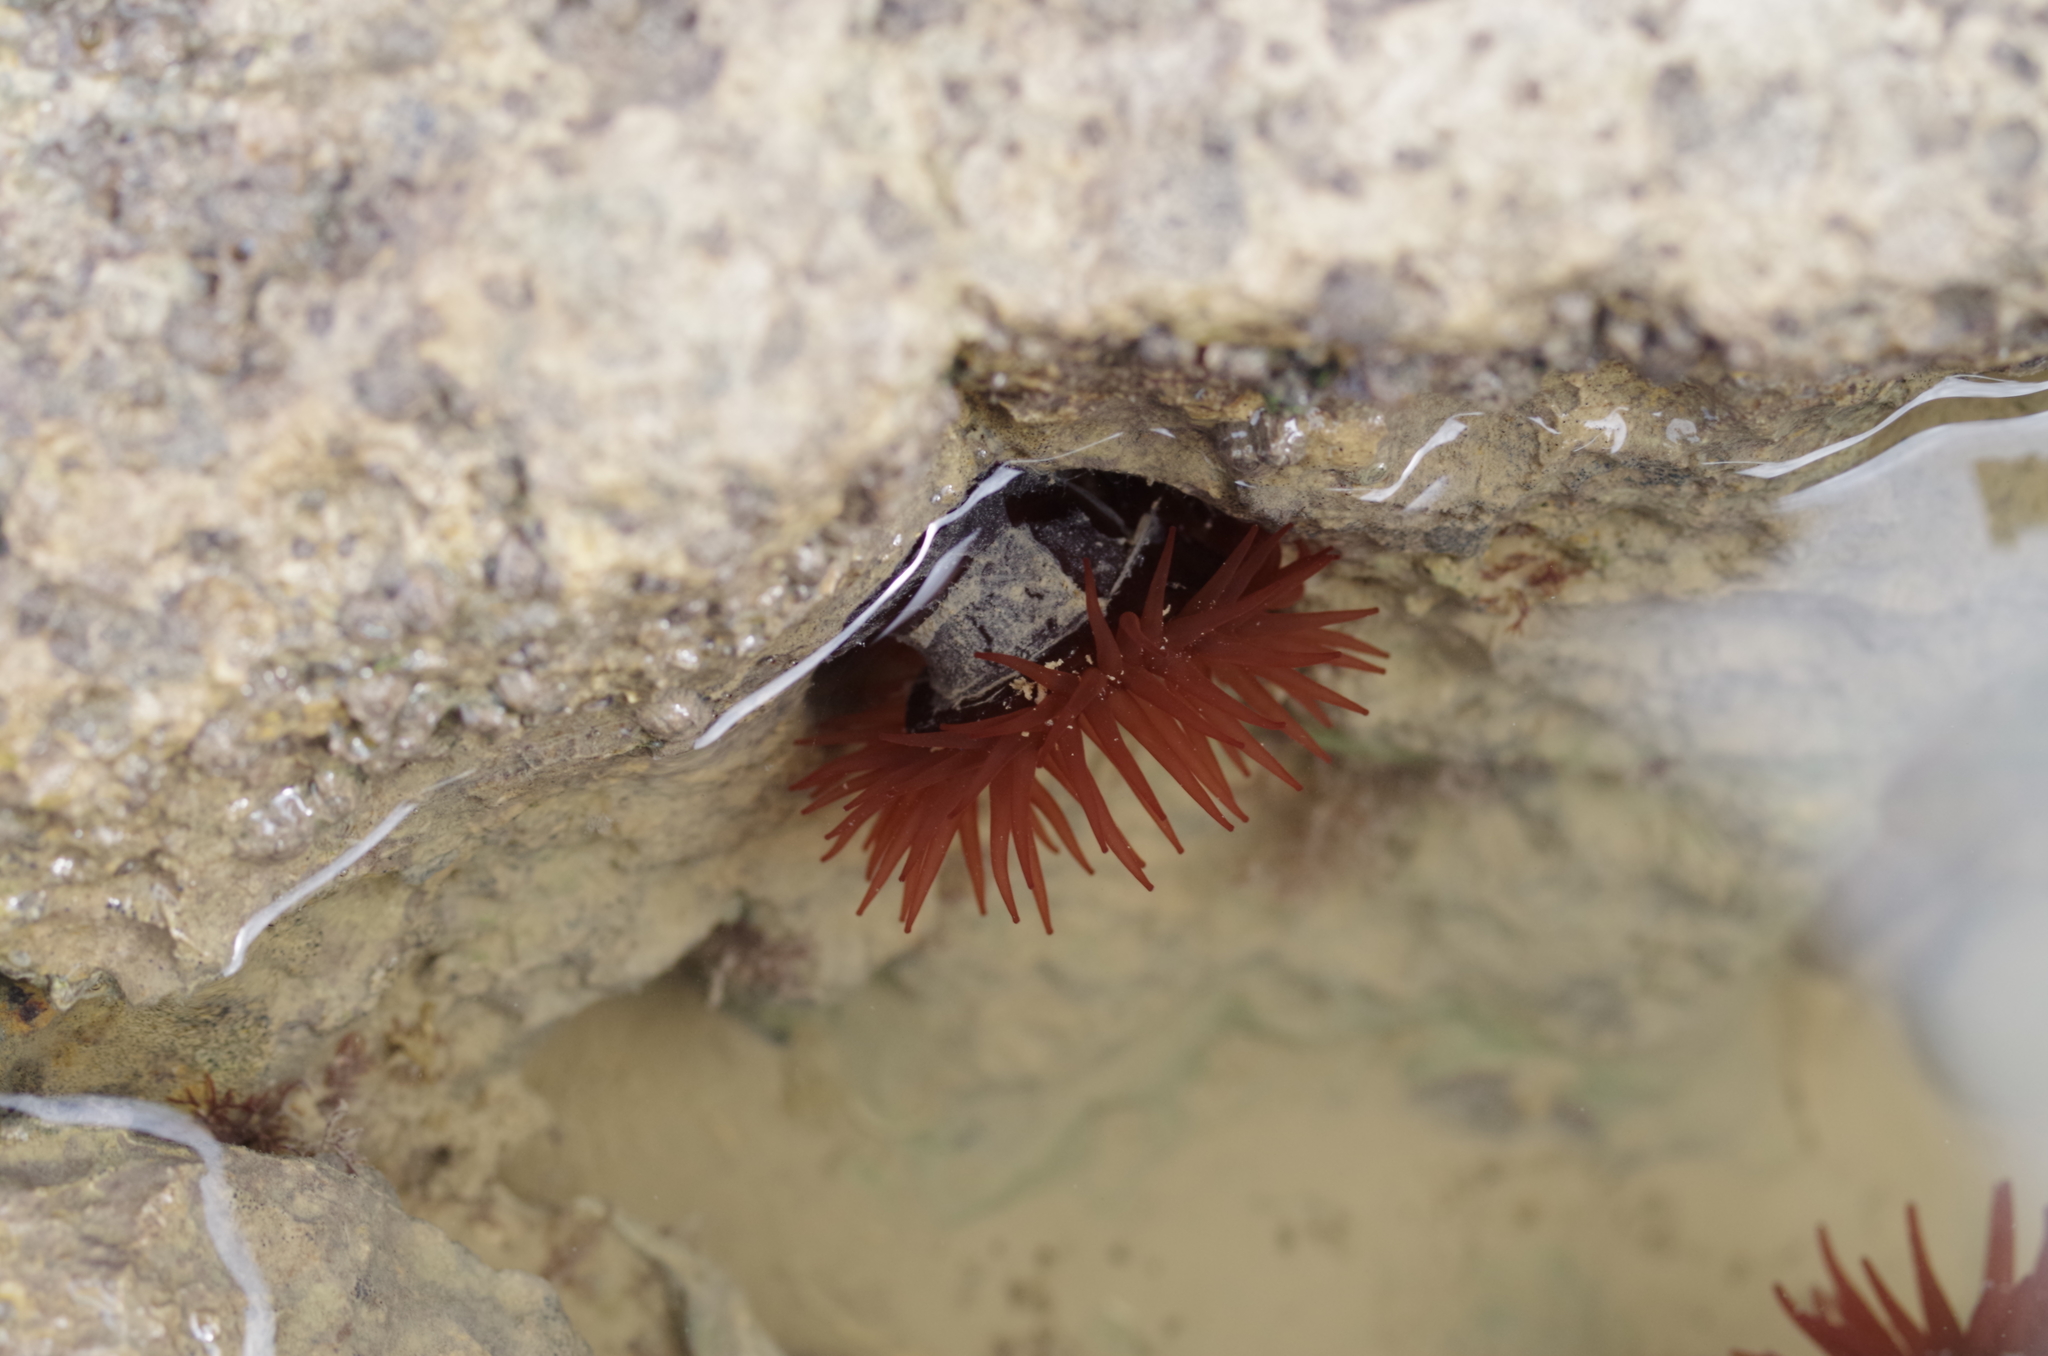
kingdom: Animalia
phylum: Cnidaria
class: Anthozoa
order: Actiniaria
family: Actiniidae
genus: Actinia
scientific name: Actinia equina
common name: Beadlet anemone
